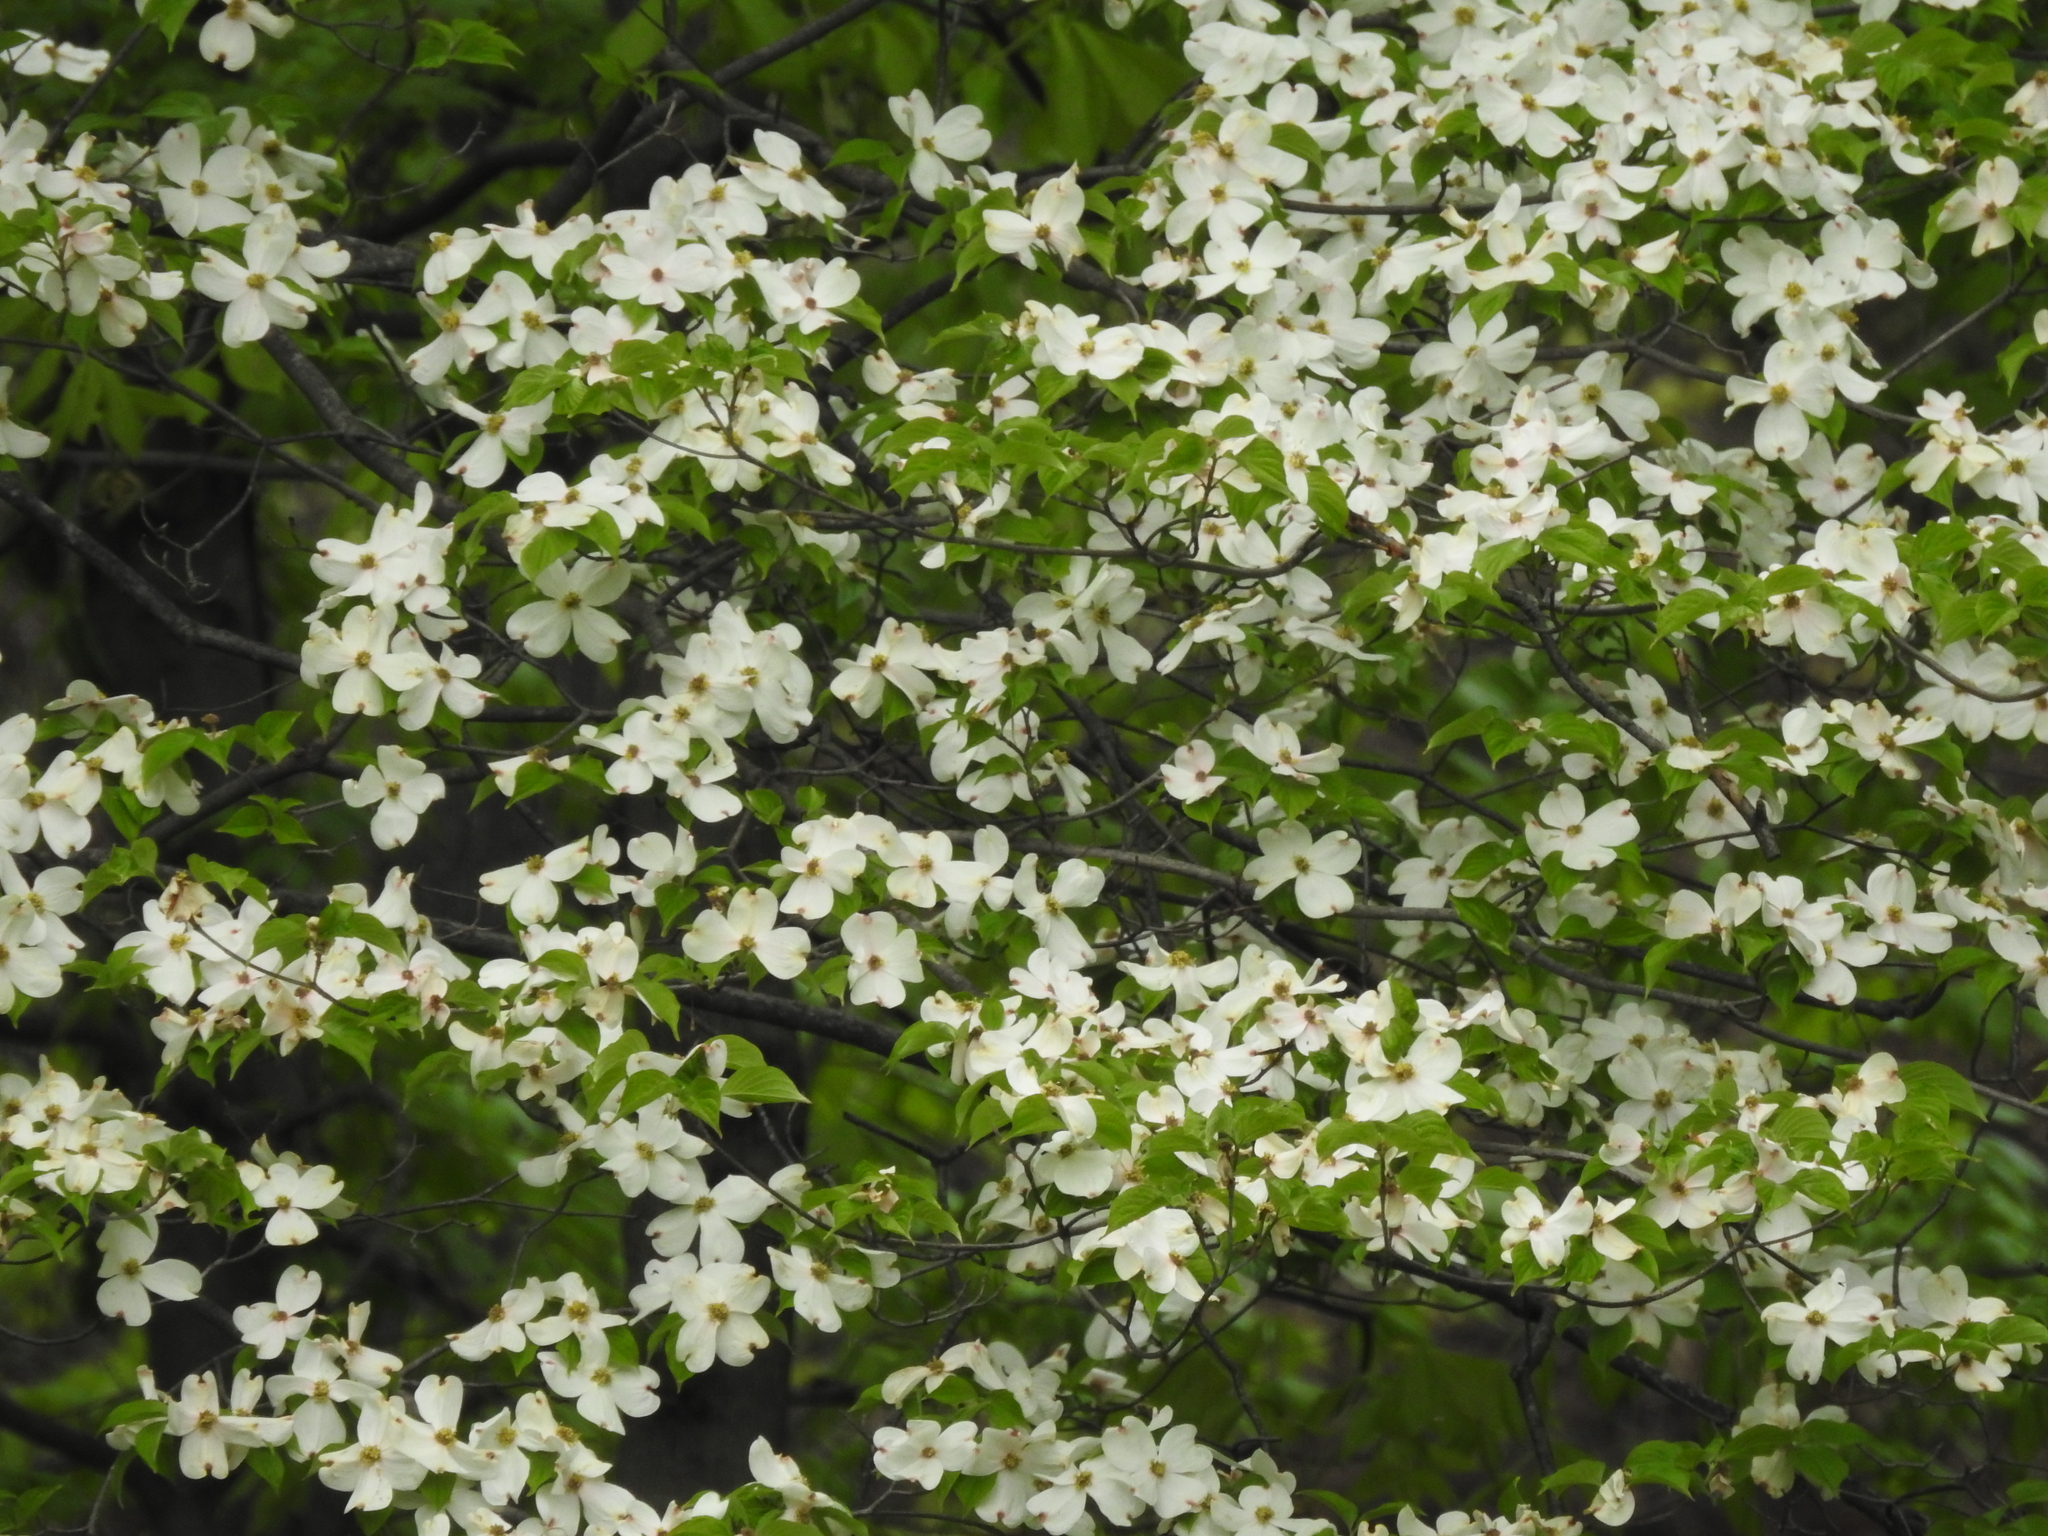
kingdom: Plantae
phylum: Tracheophyta
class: Magnoliopsida
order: Cornales
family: Cornaceae
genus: Cornus
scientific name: Cornus florida
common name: Flowering dogwood
